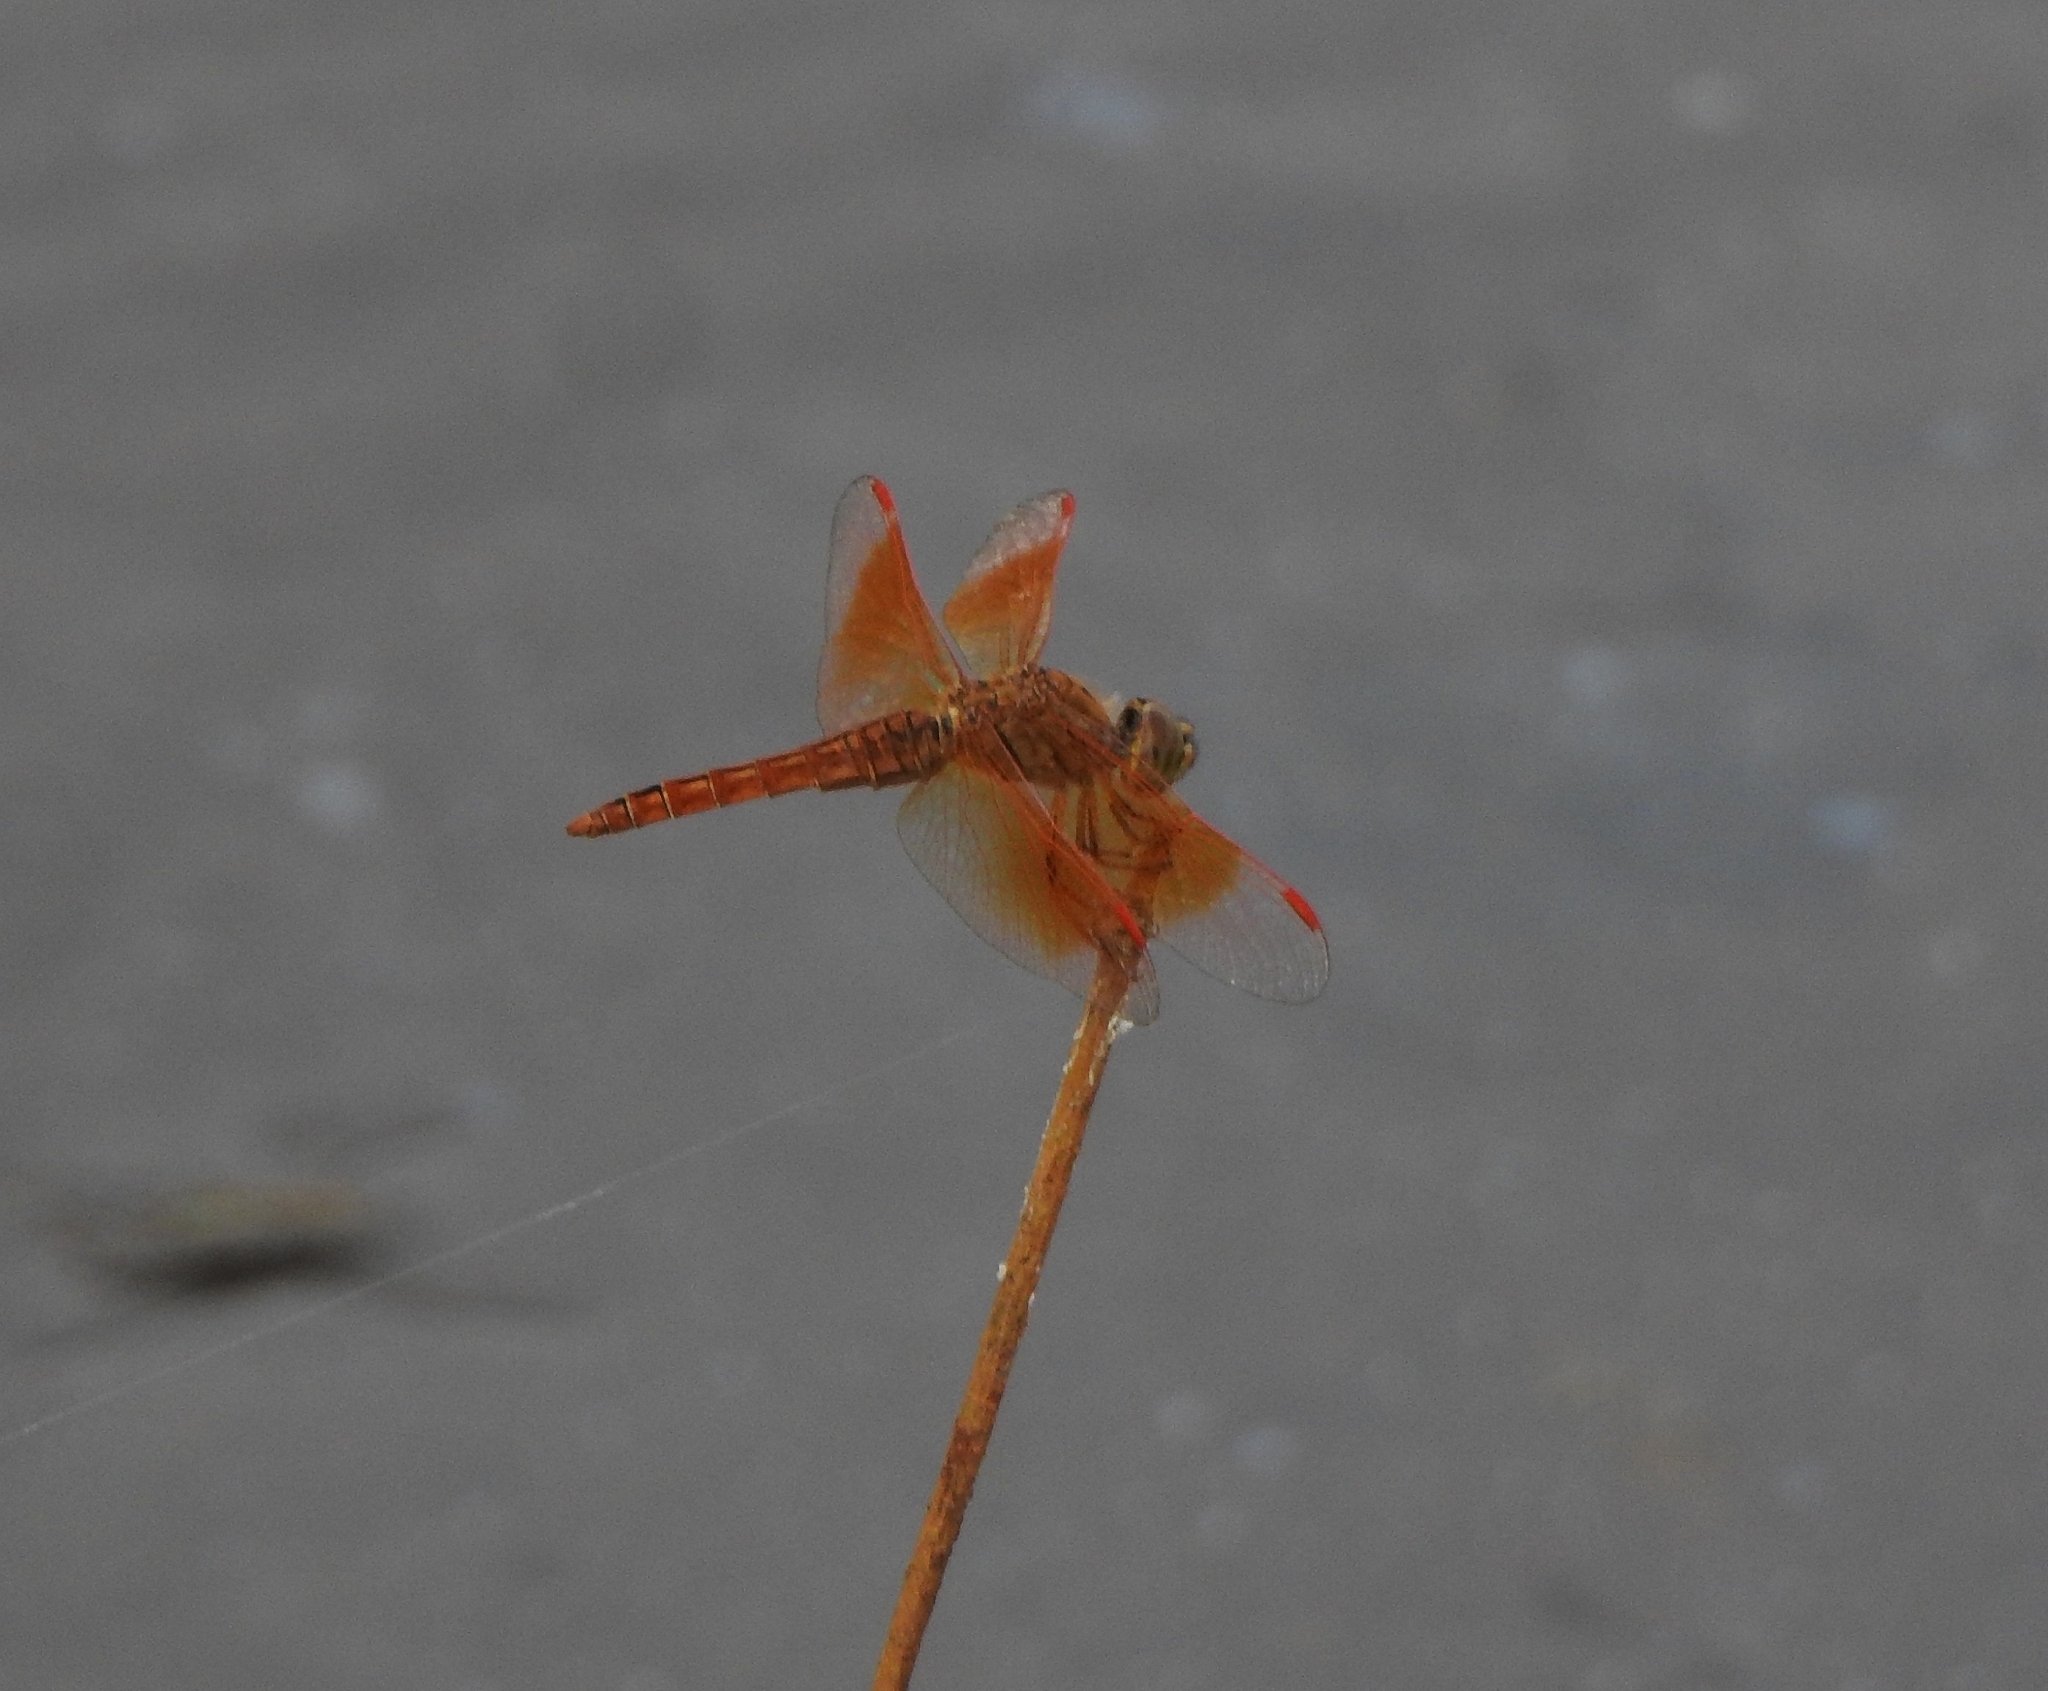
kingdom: Animalia
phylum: Arthropoda
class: Insecta
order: Odonata
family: Libellulidae
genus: Brachythemis
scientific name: Brachythemis contaminata
